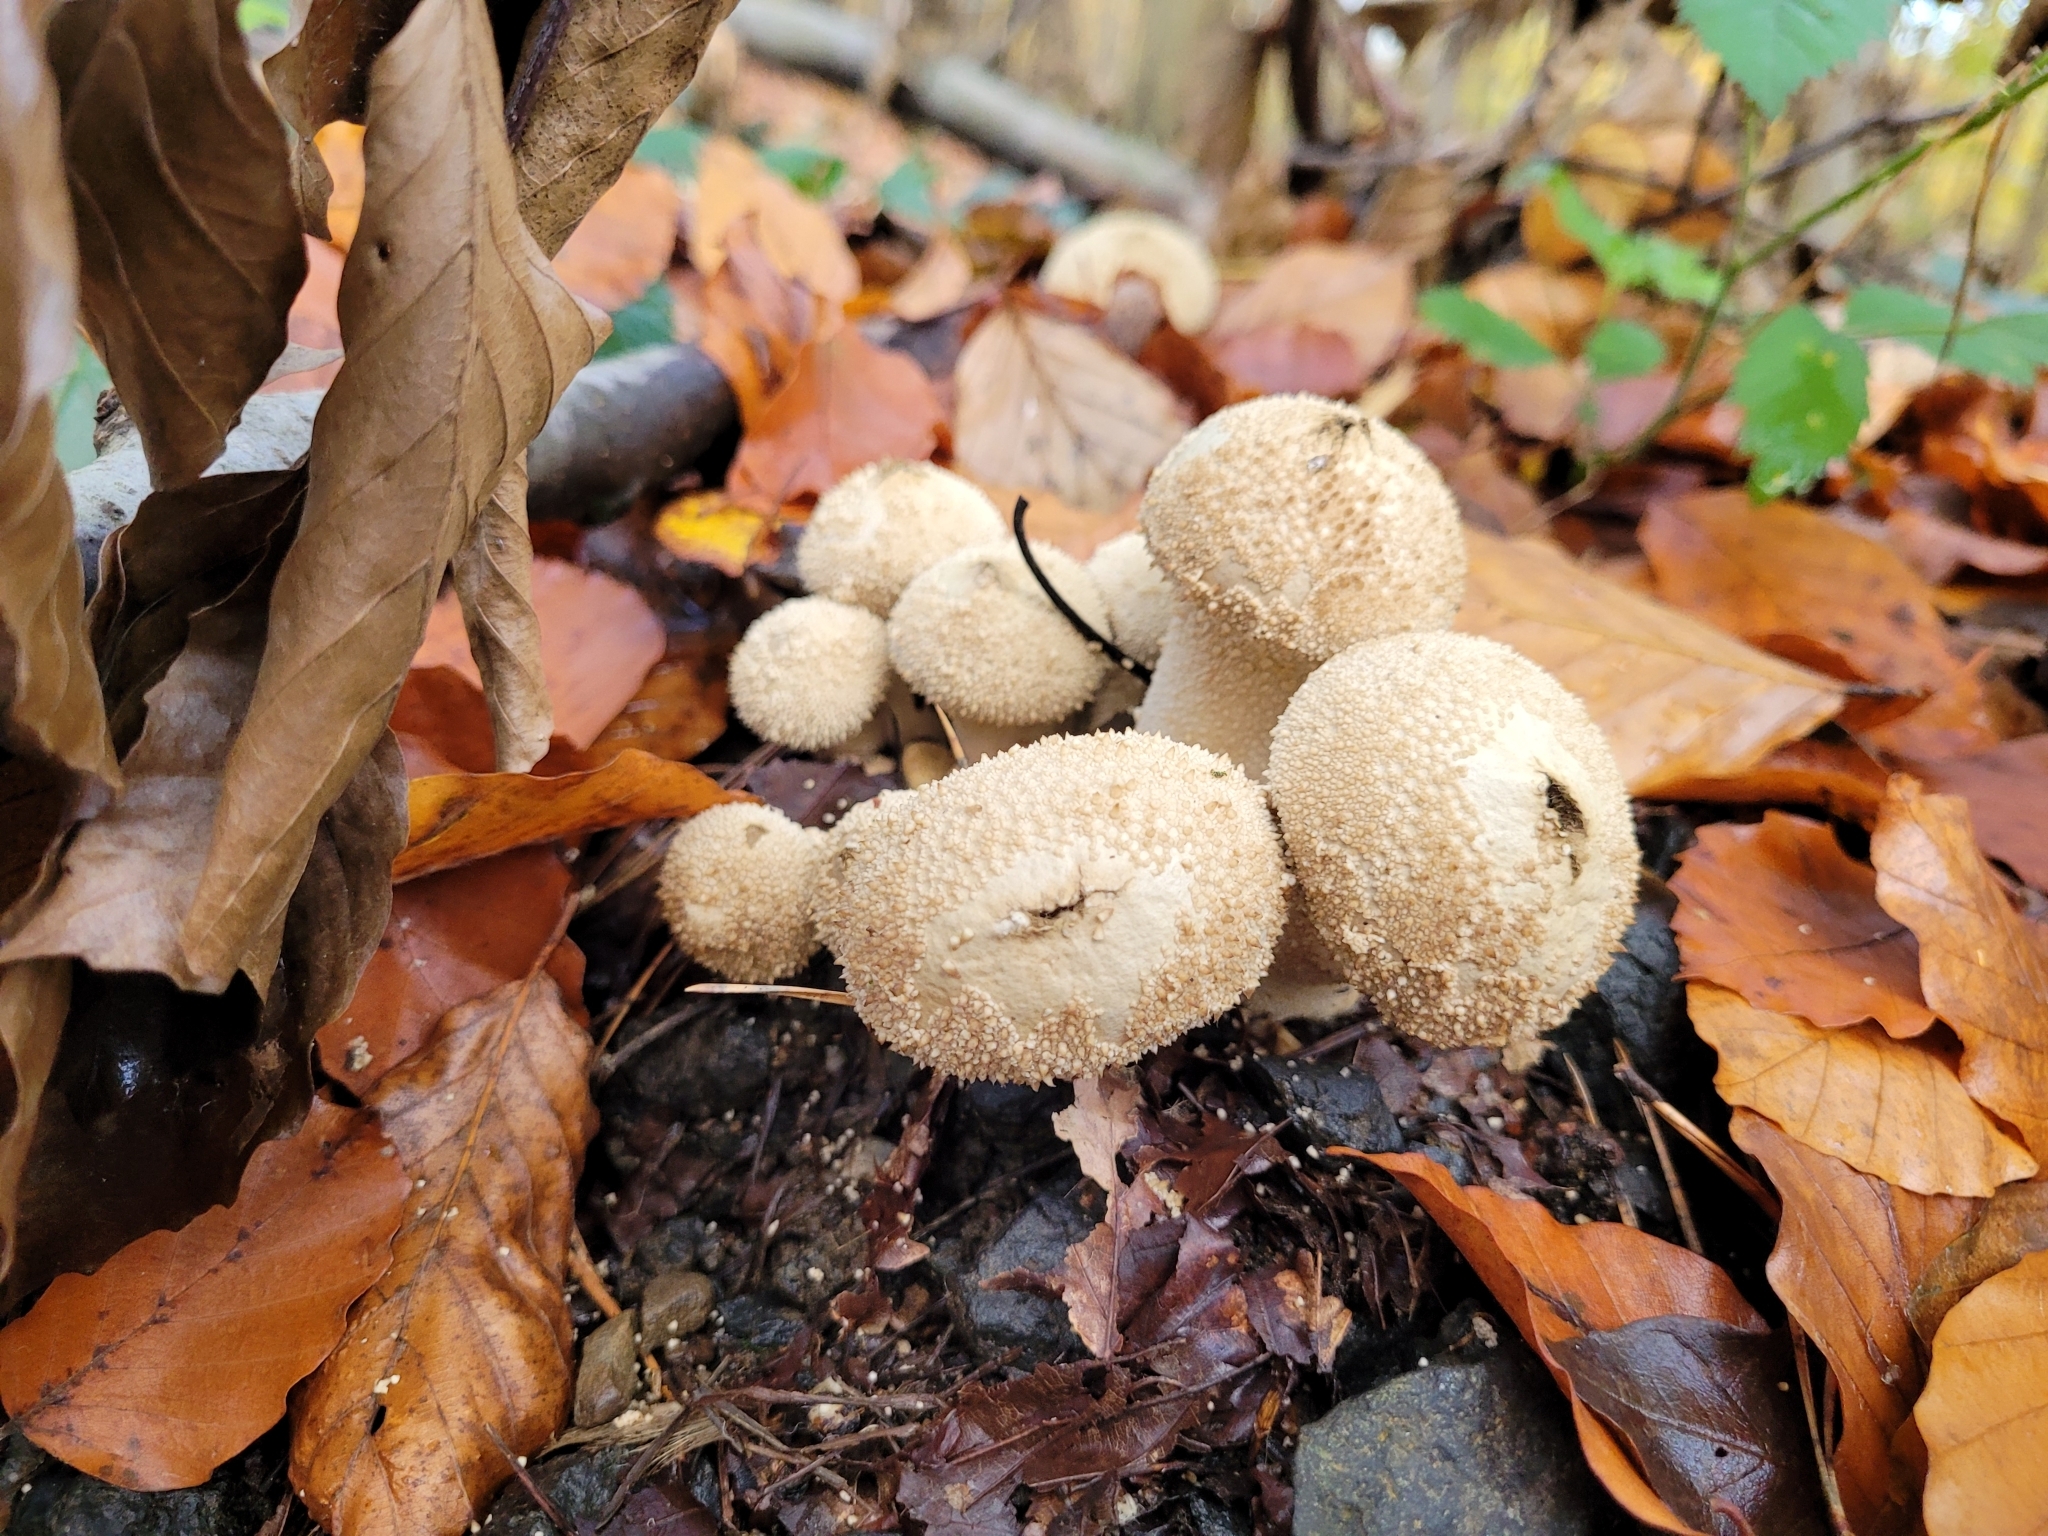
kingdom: Fungi
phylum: Basidiomycota
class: Agaricomycetes
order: Agaricales
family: Lycoperdaceae
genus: Lycoperdon
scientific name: Lycoperdon perlatum
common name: Common puffball
